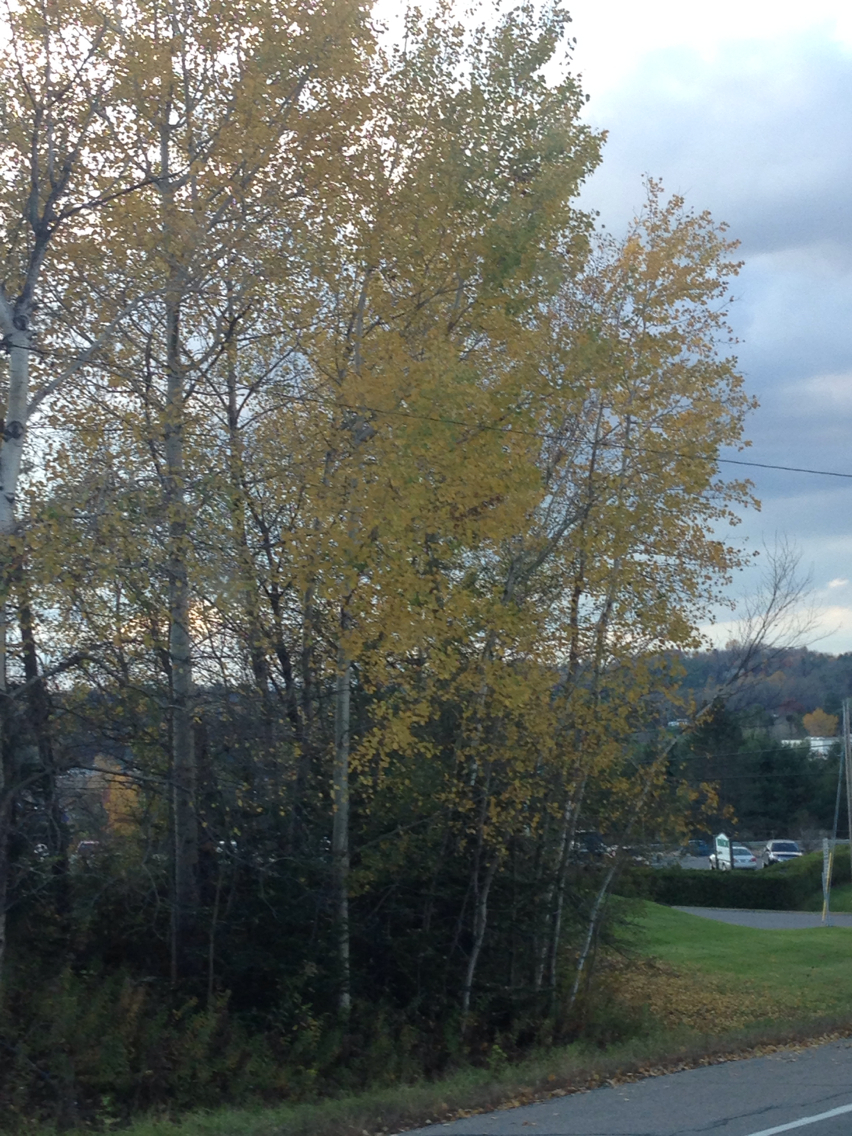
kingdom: Plantae
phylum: Tracheophyta
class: Magnoliopsida
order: Malpighiales
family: Salicaceae
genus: Populus
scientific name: Populus tremuloides
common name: Quaking aspen
